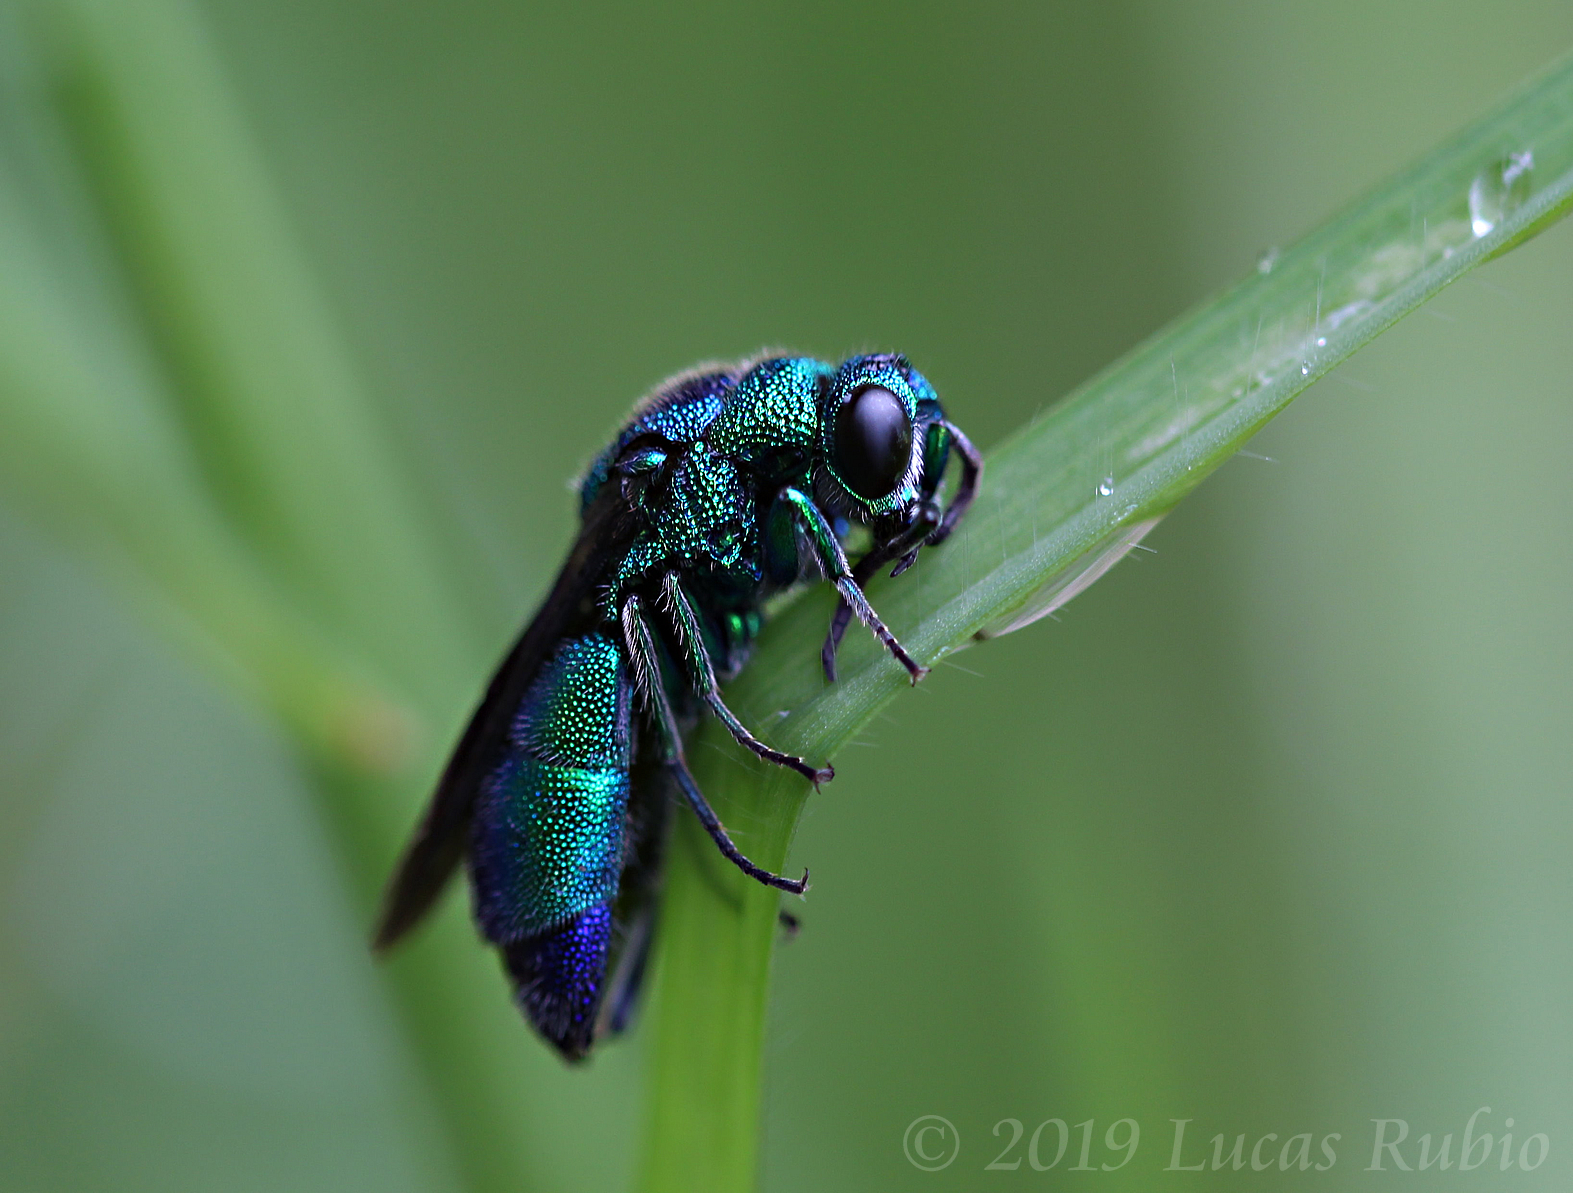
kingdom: Animalia
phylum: Arthropoda
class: Insecta
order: Hymenoptera
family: Chrysididae
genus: Chrysis
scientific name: Chrysis angolensis
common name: Cuckoo wasp
